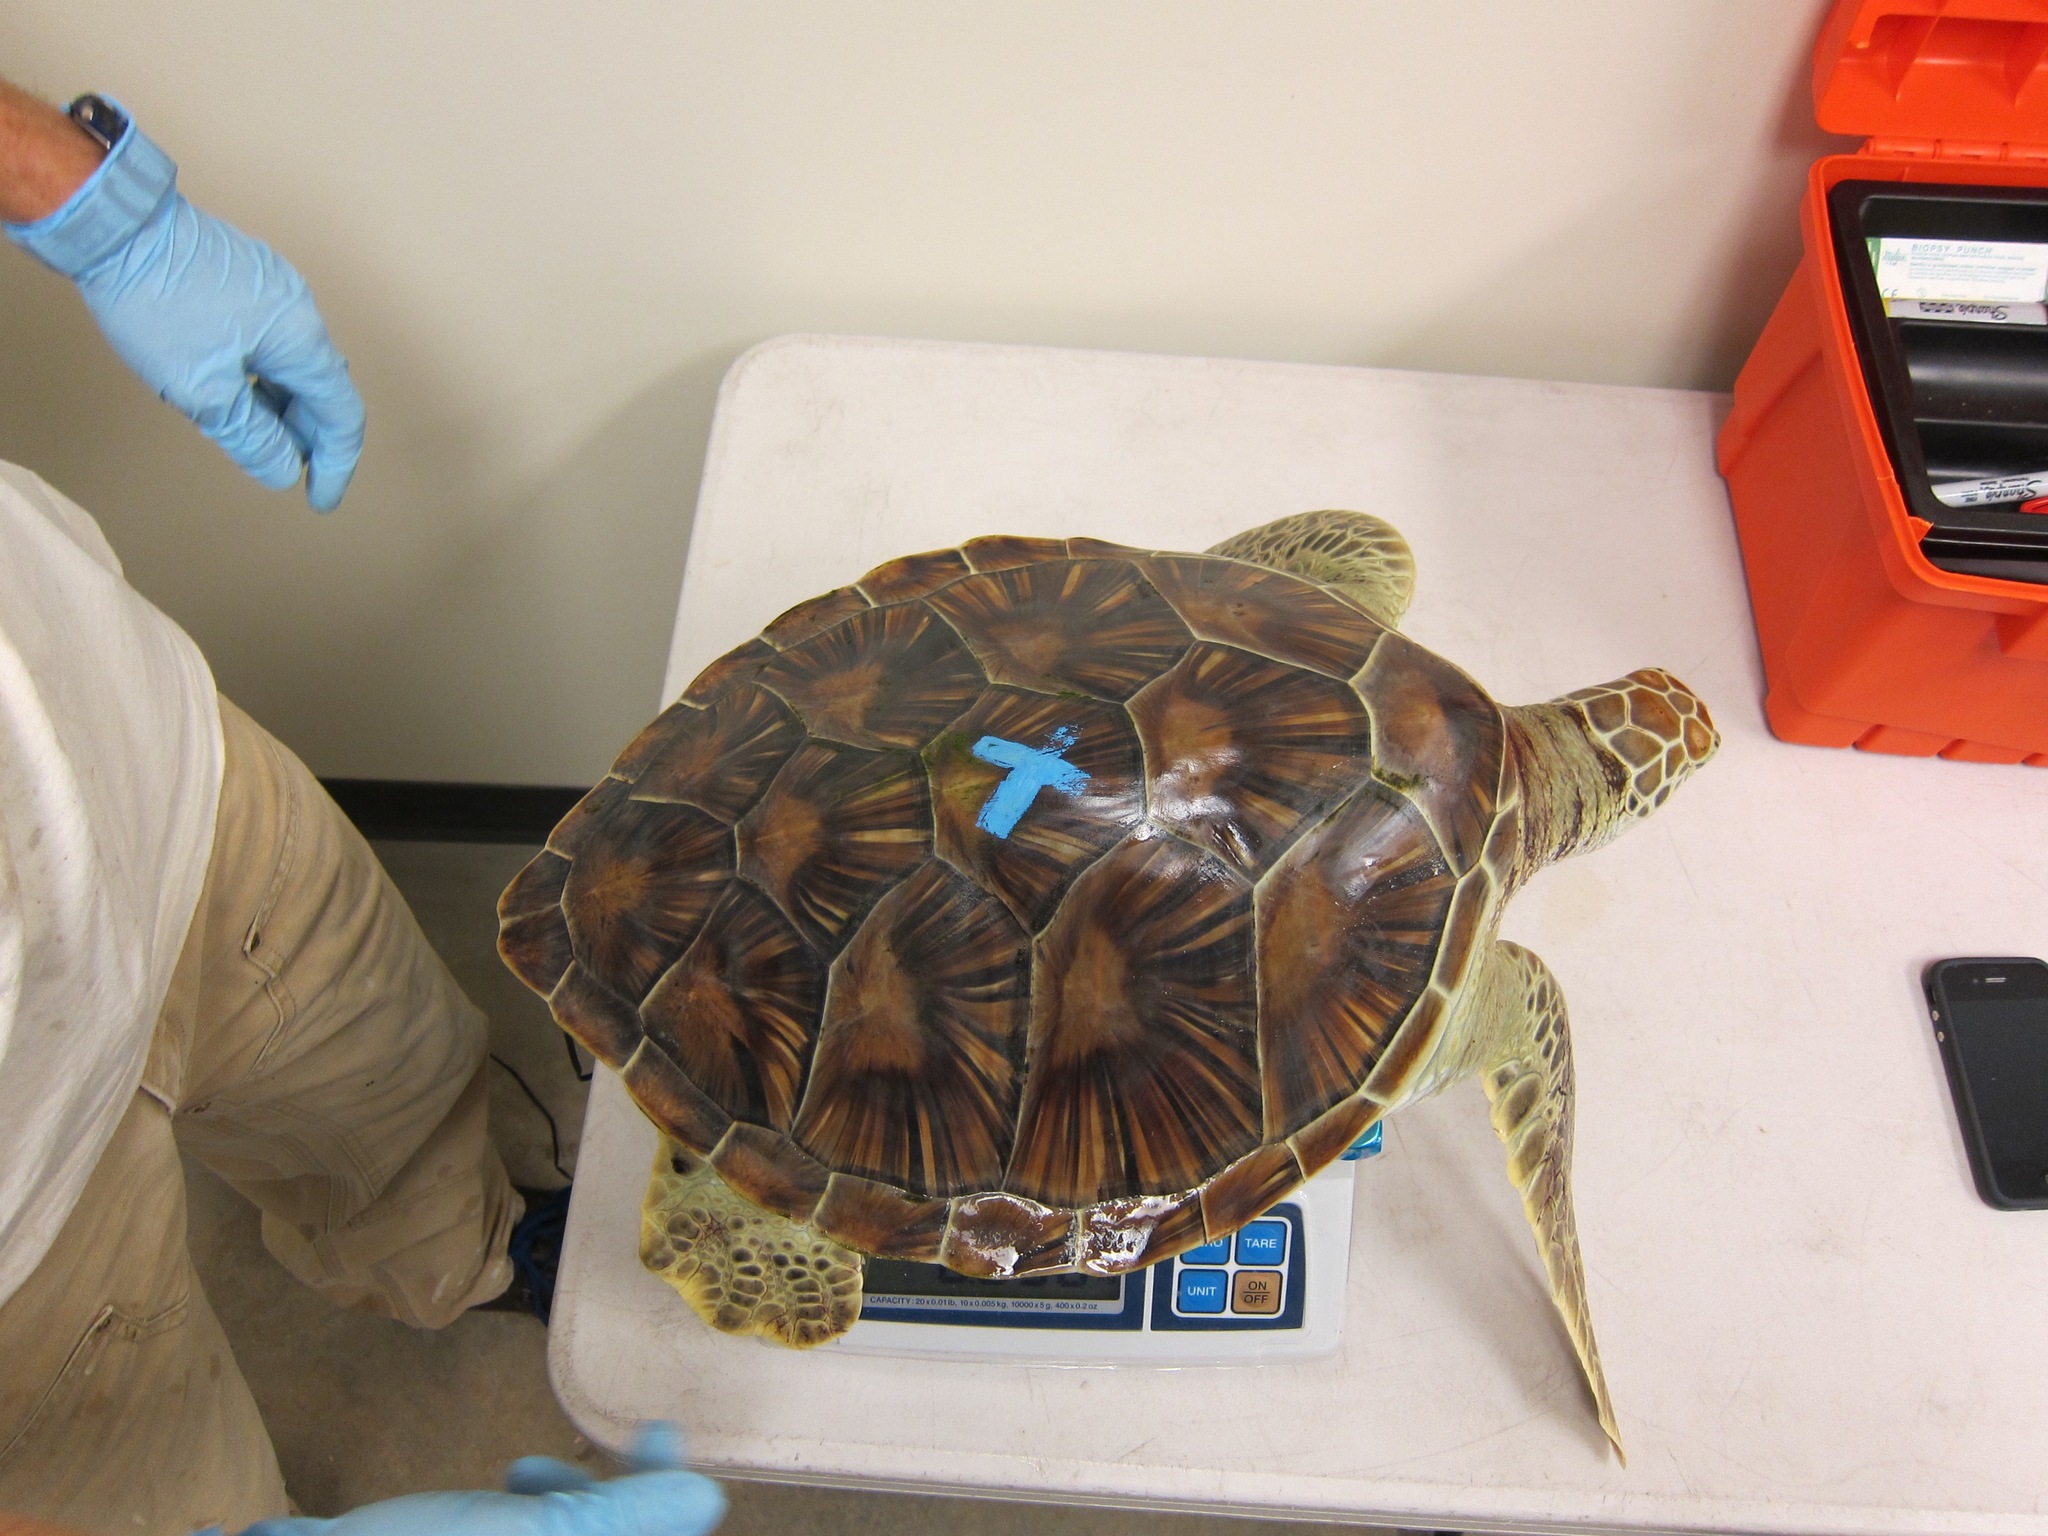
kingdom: Animalia
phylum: Chordata
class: Testudines
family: Cheloniidae
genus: Chelonia
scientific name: Chelonia mydas
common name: Green turtle
